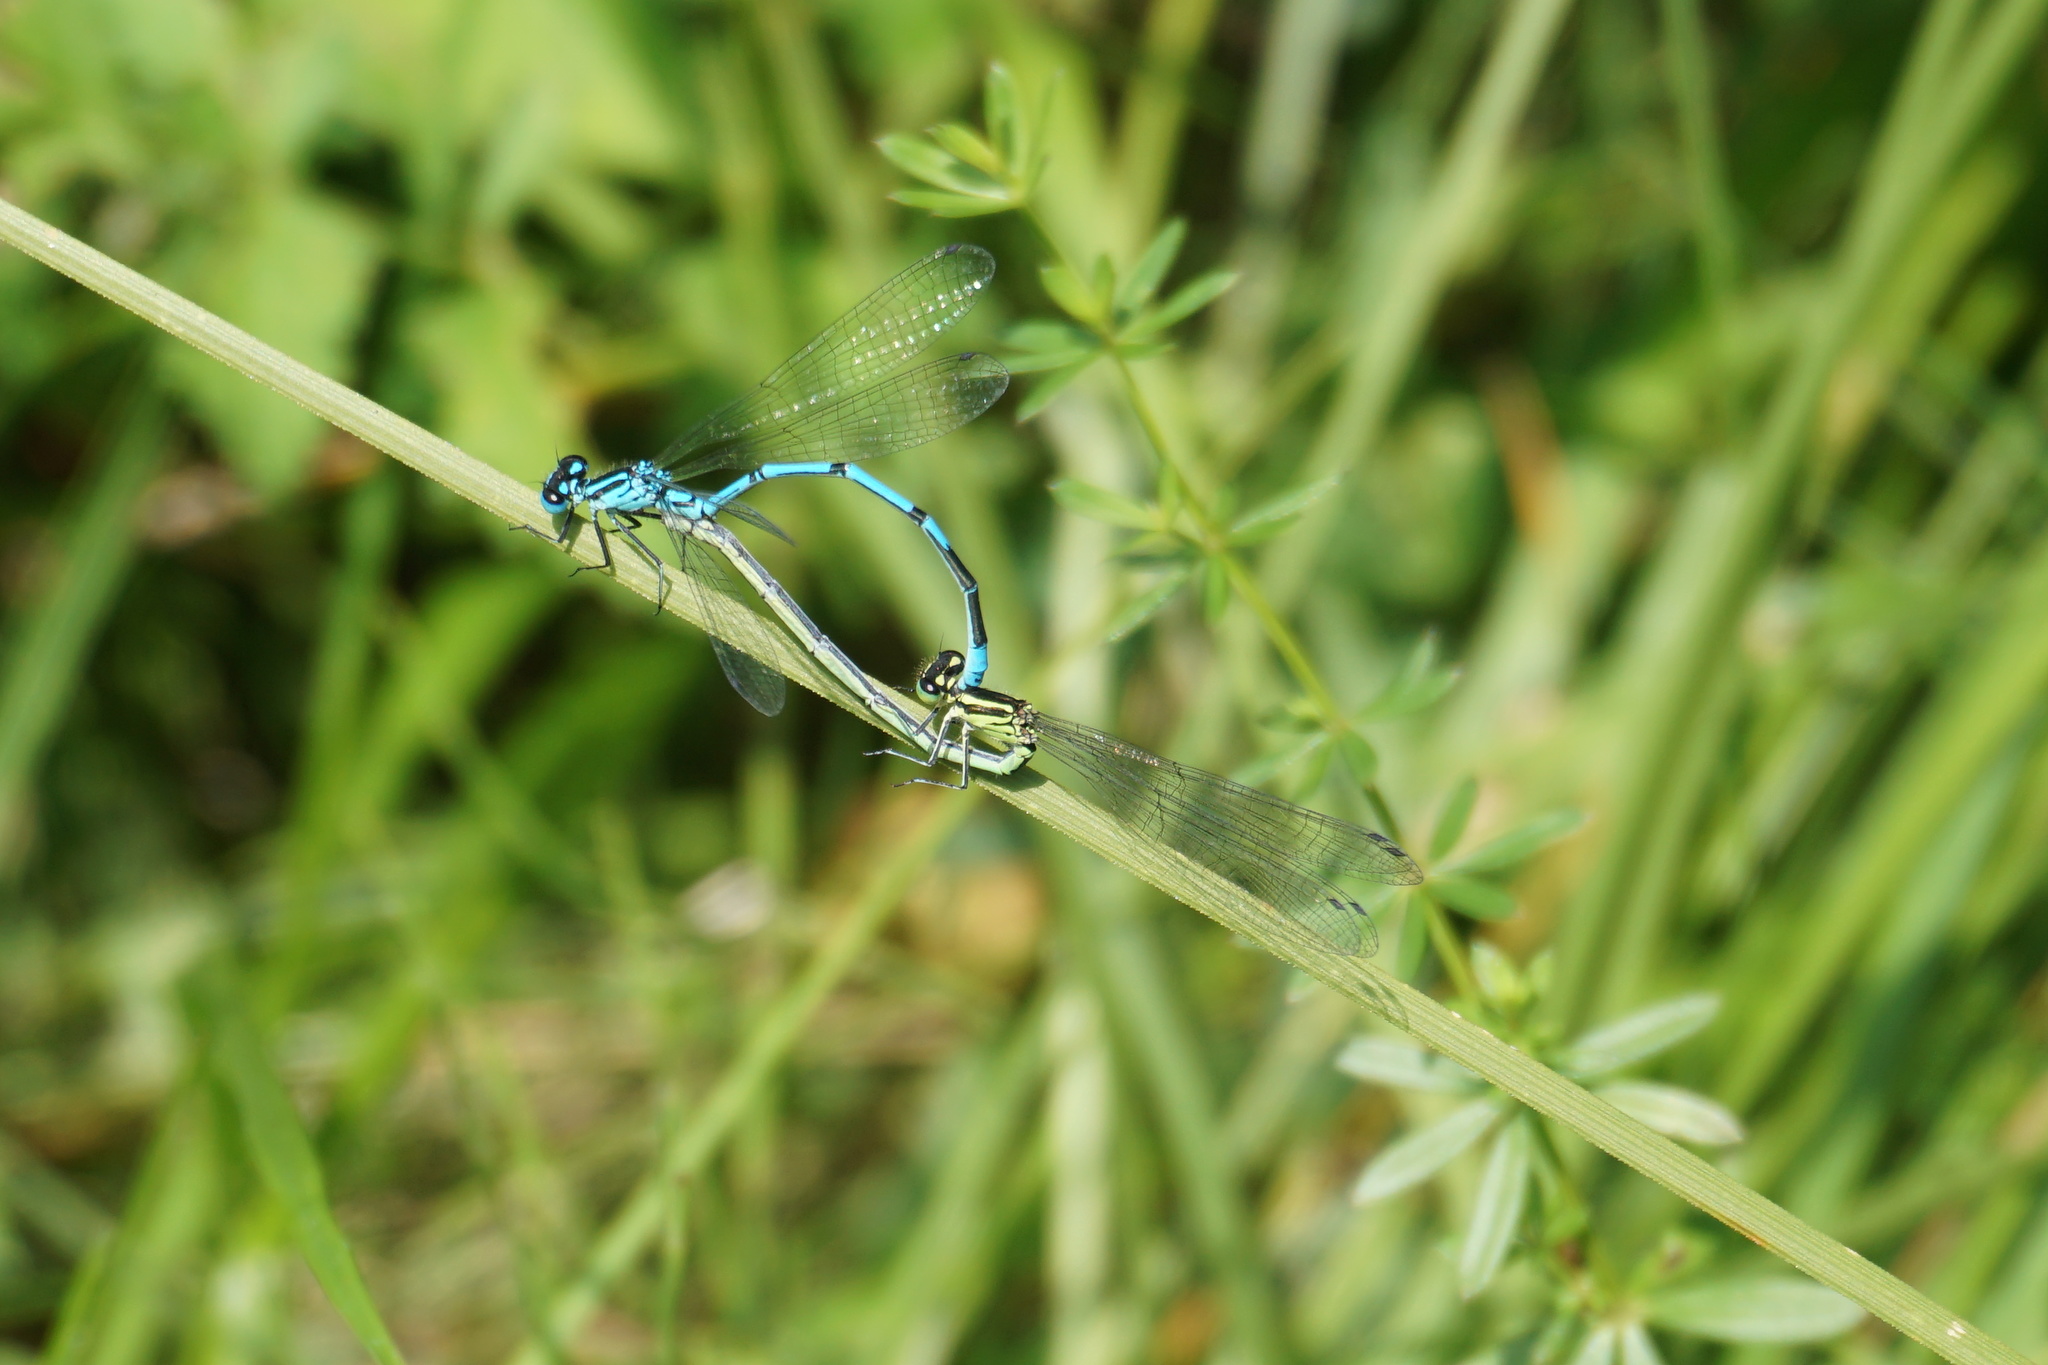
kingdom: Animalia
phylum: Arthropoda
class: Insecta
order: Odonata
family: Coenagrionidae
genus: Coenagrion
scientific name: Coenagrion puella
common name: Azure damselfly
